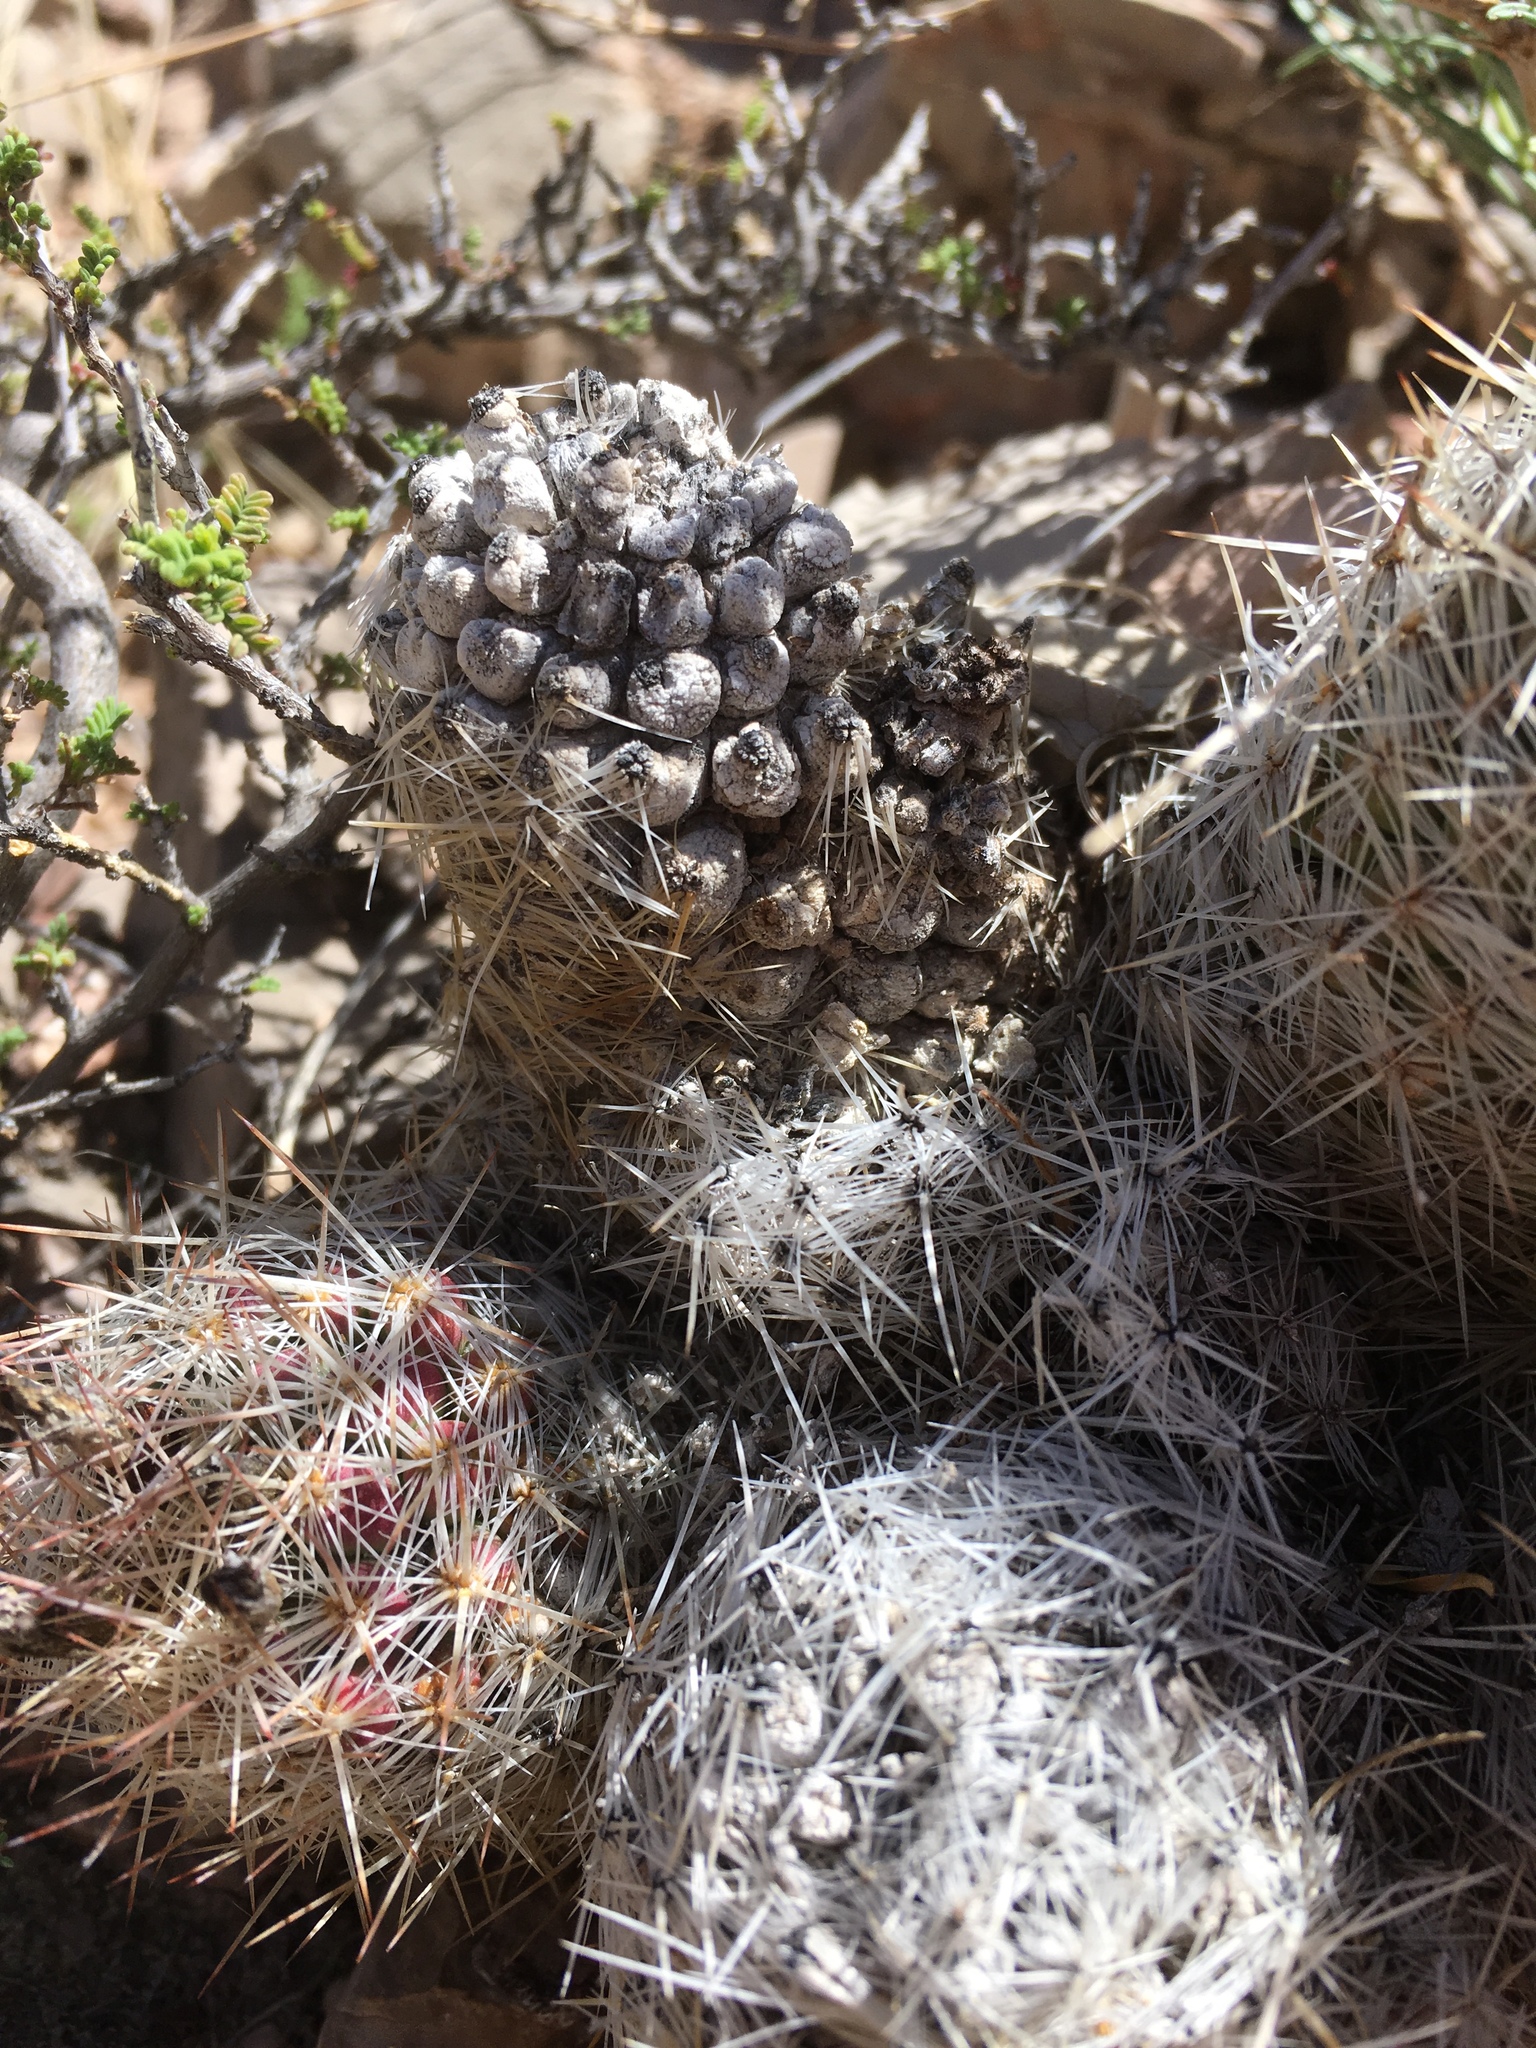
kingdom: Plantae
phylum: Tracheophyta
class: Magnoliopsida
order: Caryophyllales
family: Cactaceae
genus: Pelecyphora
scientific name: Pelecyphora tuberculosa
